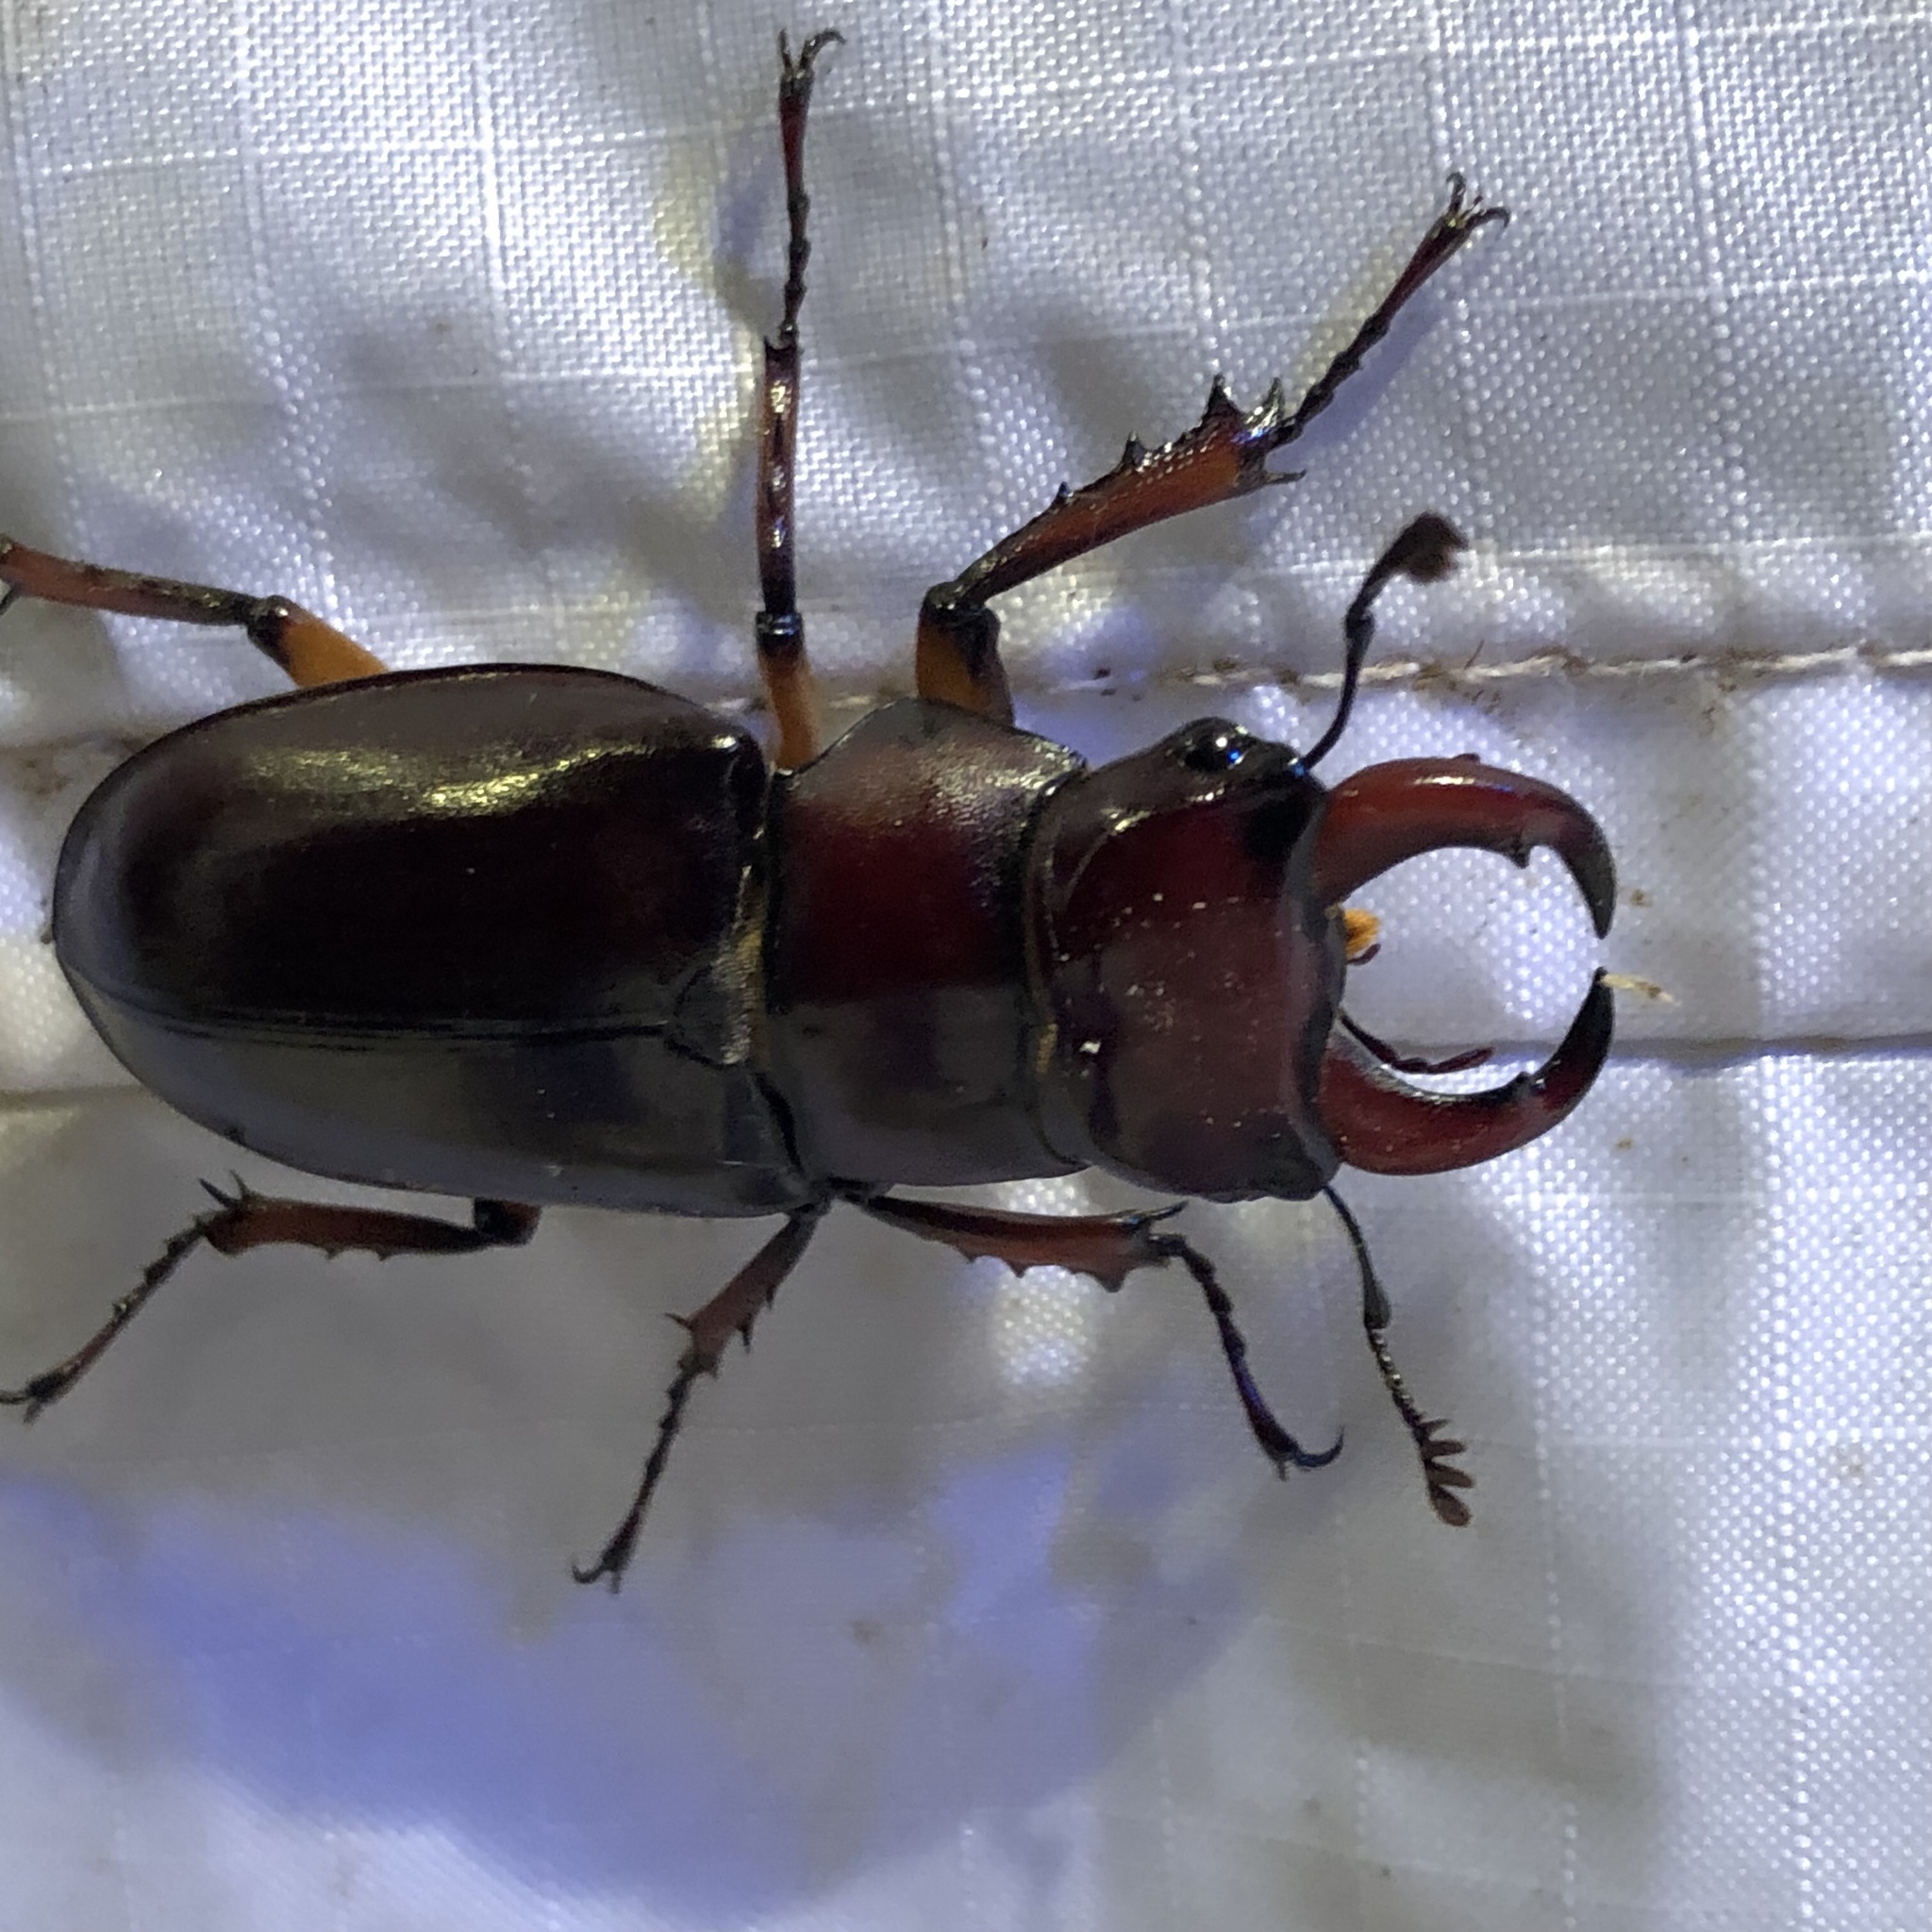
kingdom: Animalia
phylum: Arthropoda
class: Insecta
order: Coleoptera
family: Lucanidae
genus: Lucanus
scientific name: Lucanus capreolus
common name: Stag beetle
